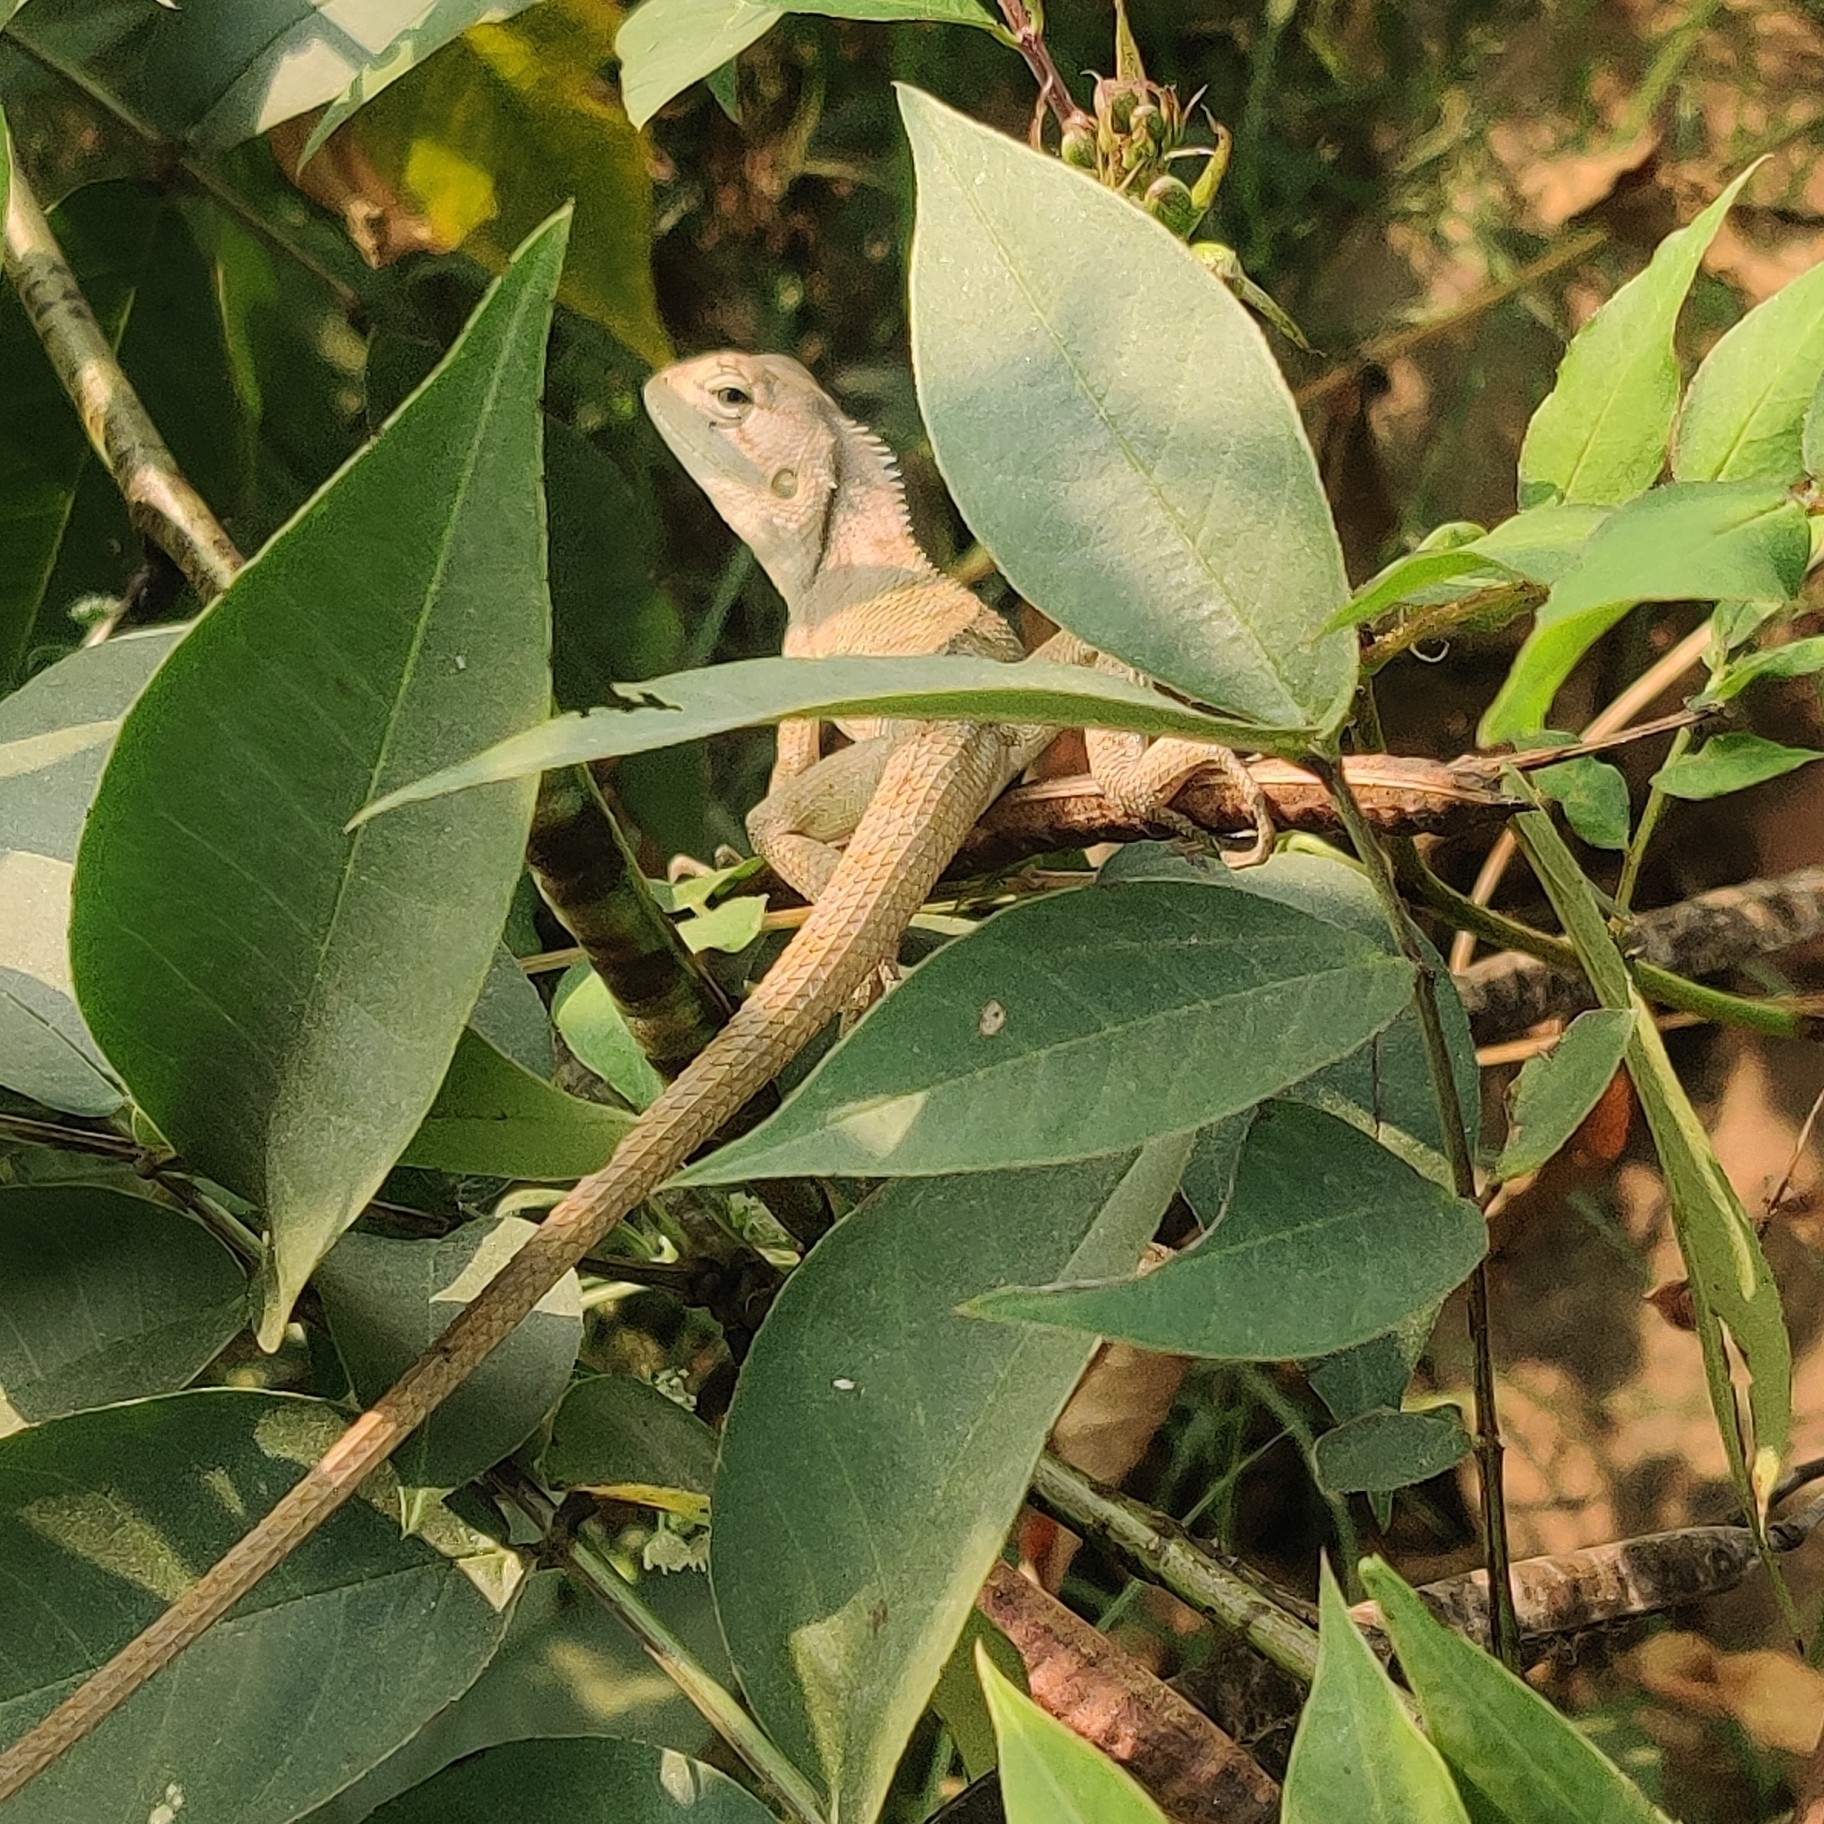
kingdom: Animalia
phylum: Chordata
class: Squamata
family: Agamidae
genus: Calotes
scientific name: Calotes versicolor
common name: Oriental garden lizard
